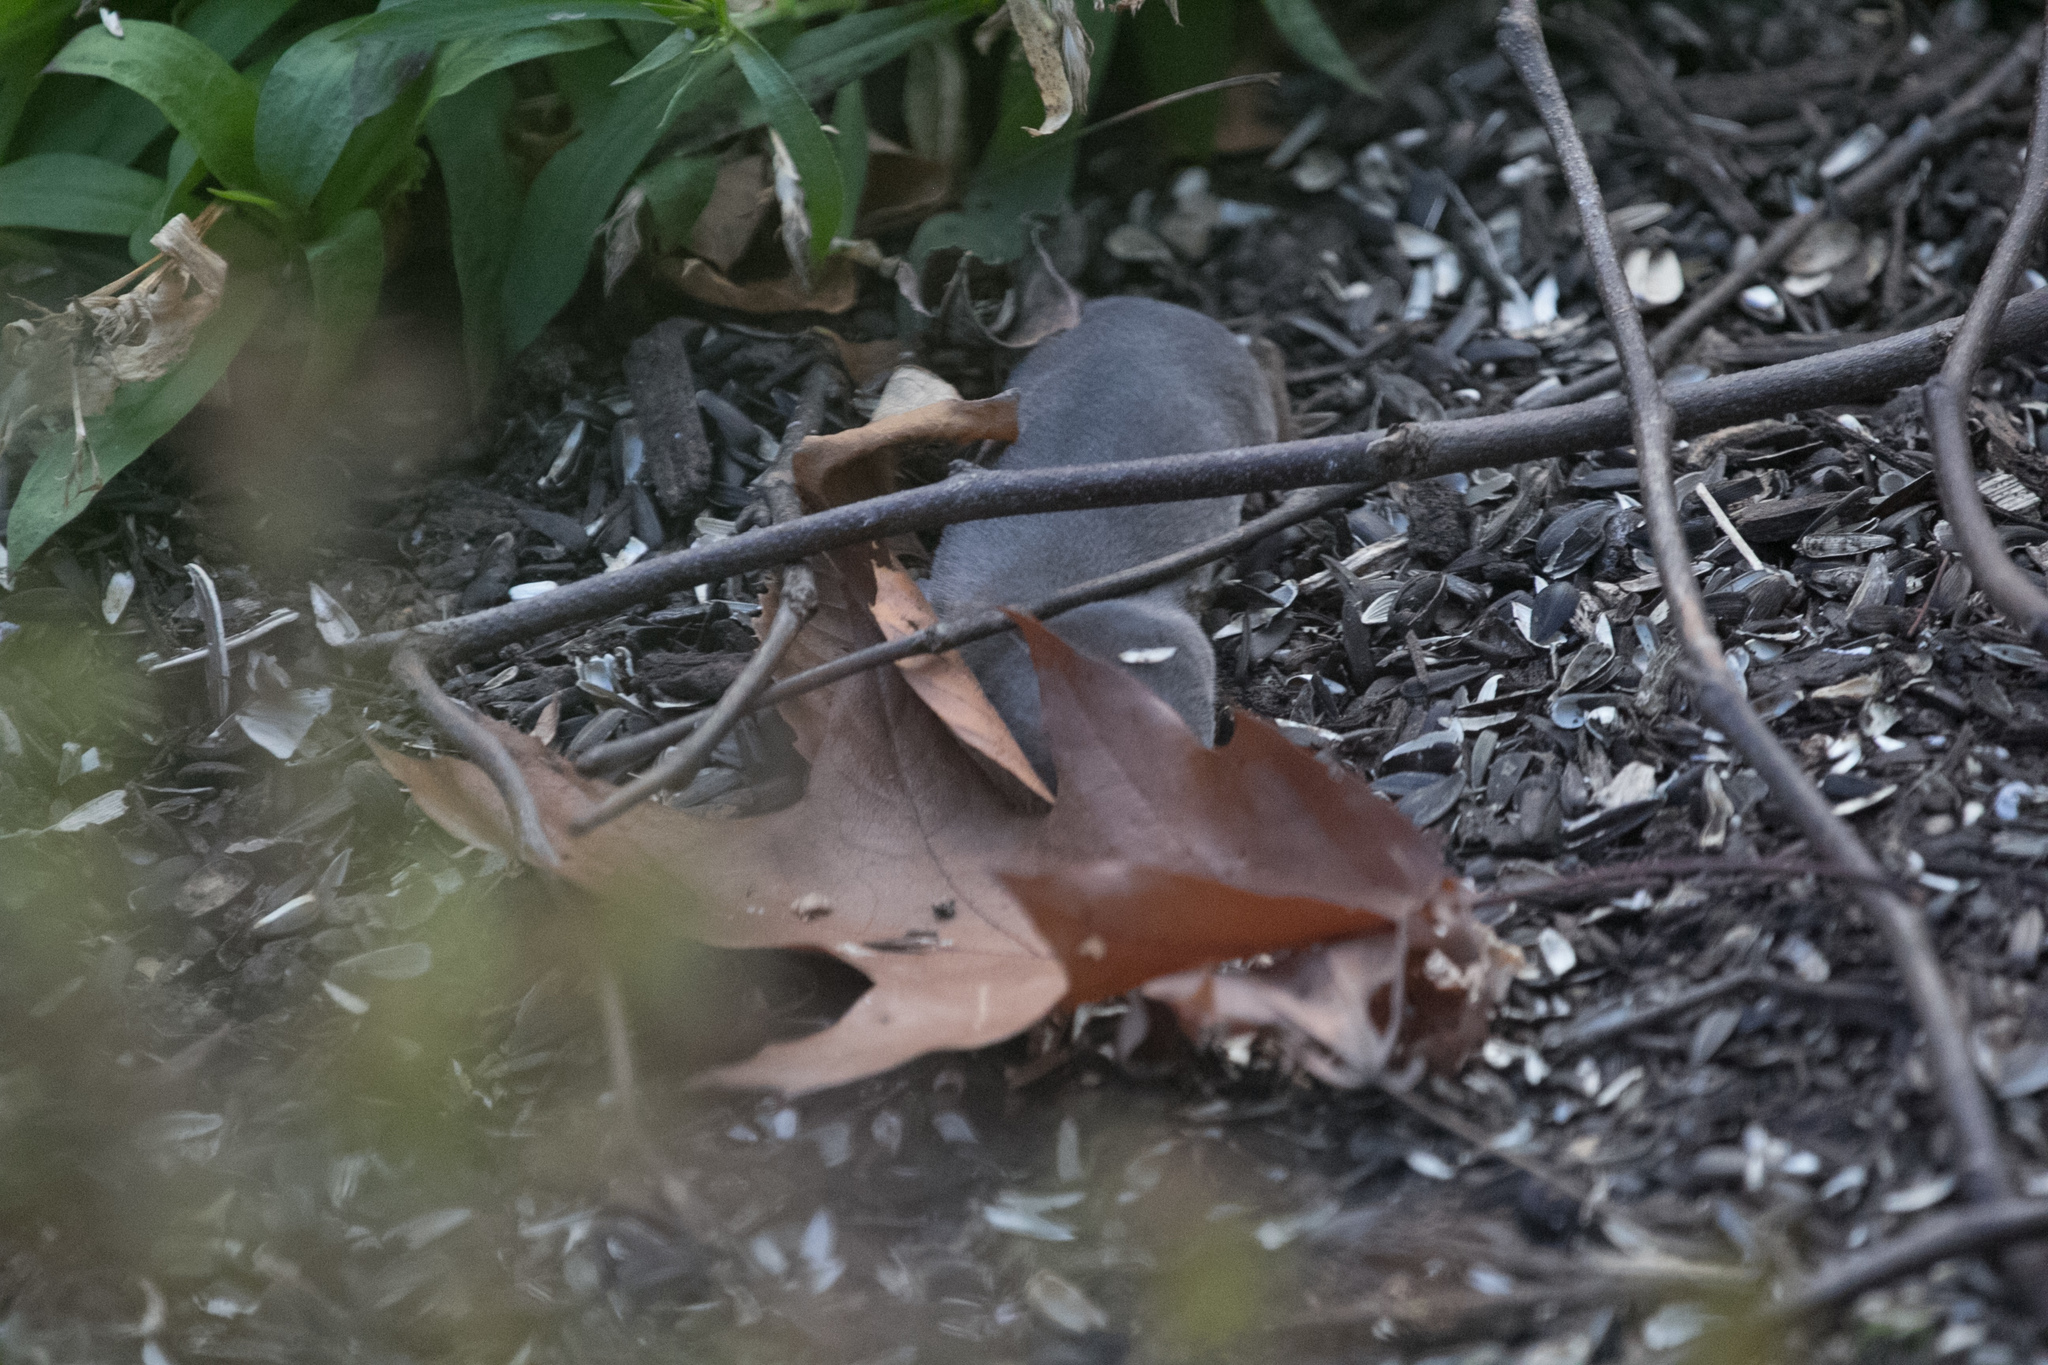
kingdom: Animalia
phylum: Chordata
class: Mammalia
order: Soricomorpha
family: Soricidae
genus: Blarina
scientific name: Blarina brevicauda
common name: Northern short-tailed shrew
